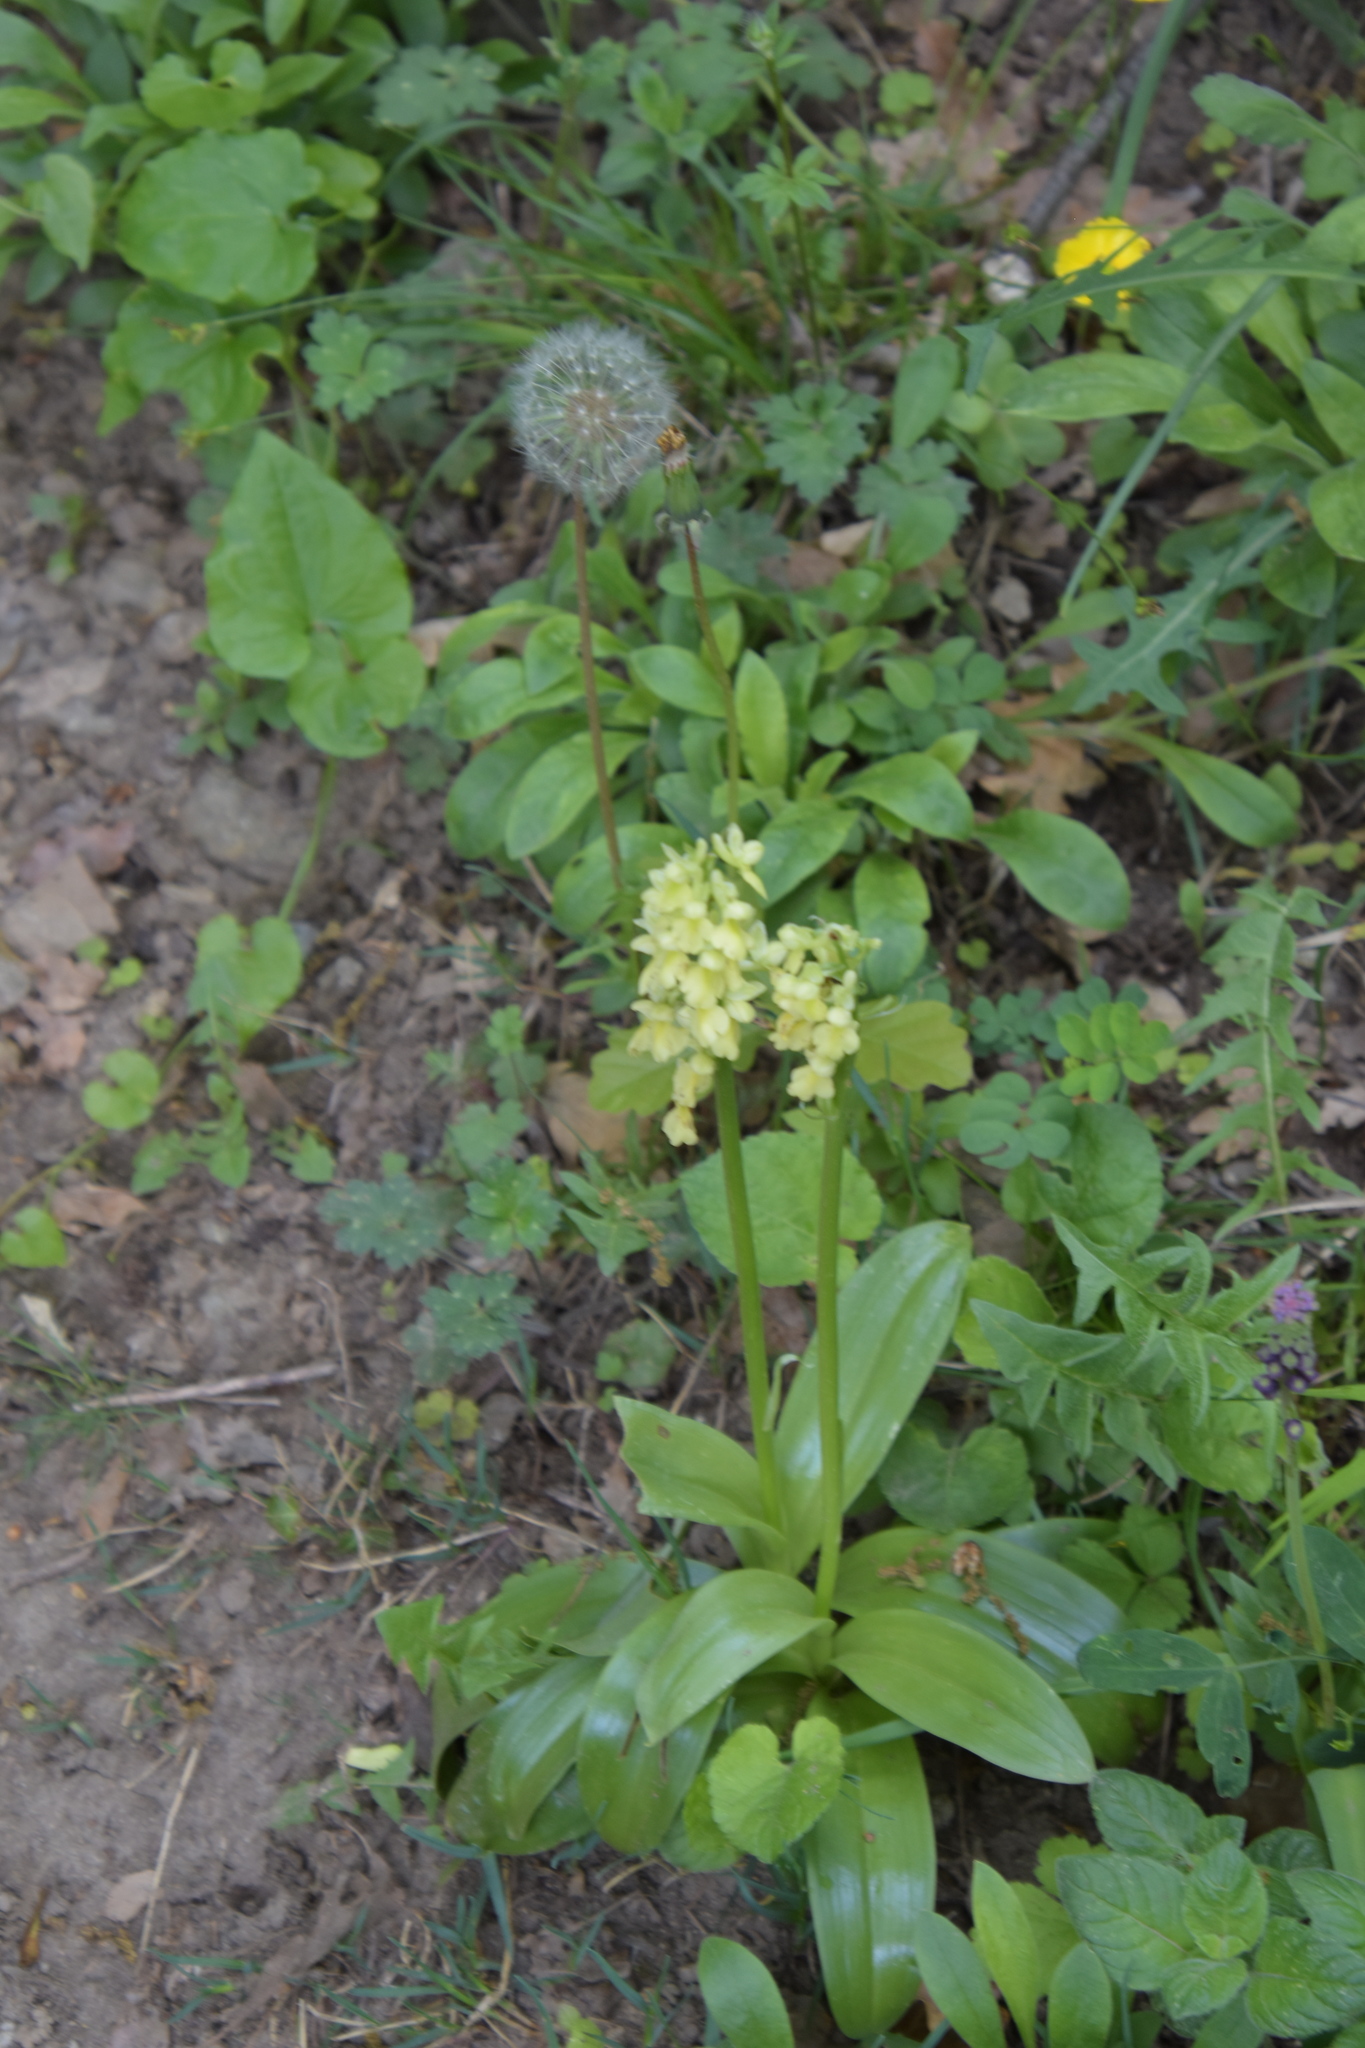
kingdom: Plantae
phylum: Tracheophyta
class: Liliopsida
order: Asparagales
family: Orchidaceae
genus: Orchis
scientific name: Orchis pallens
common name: Pale-flowered orchid
